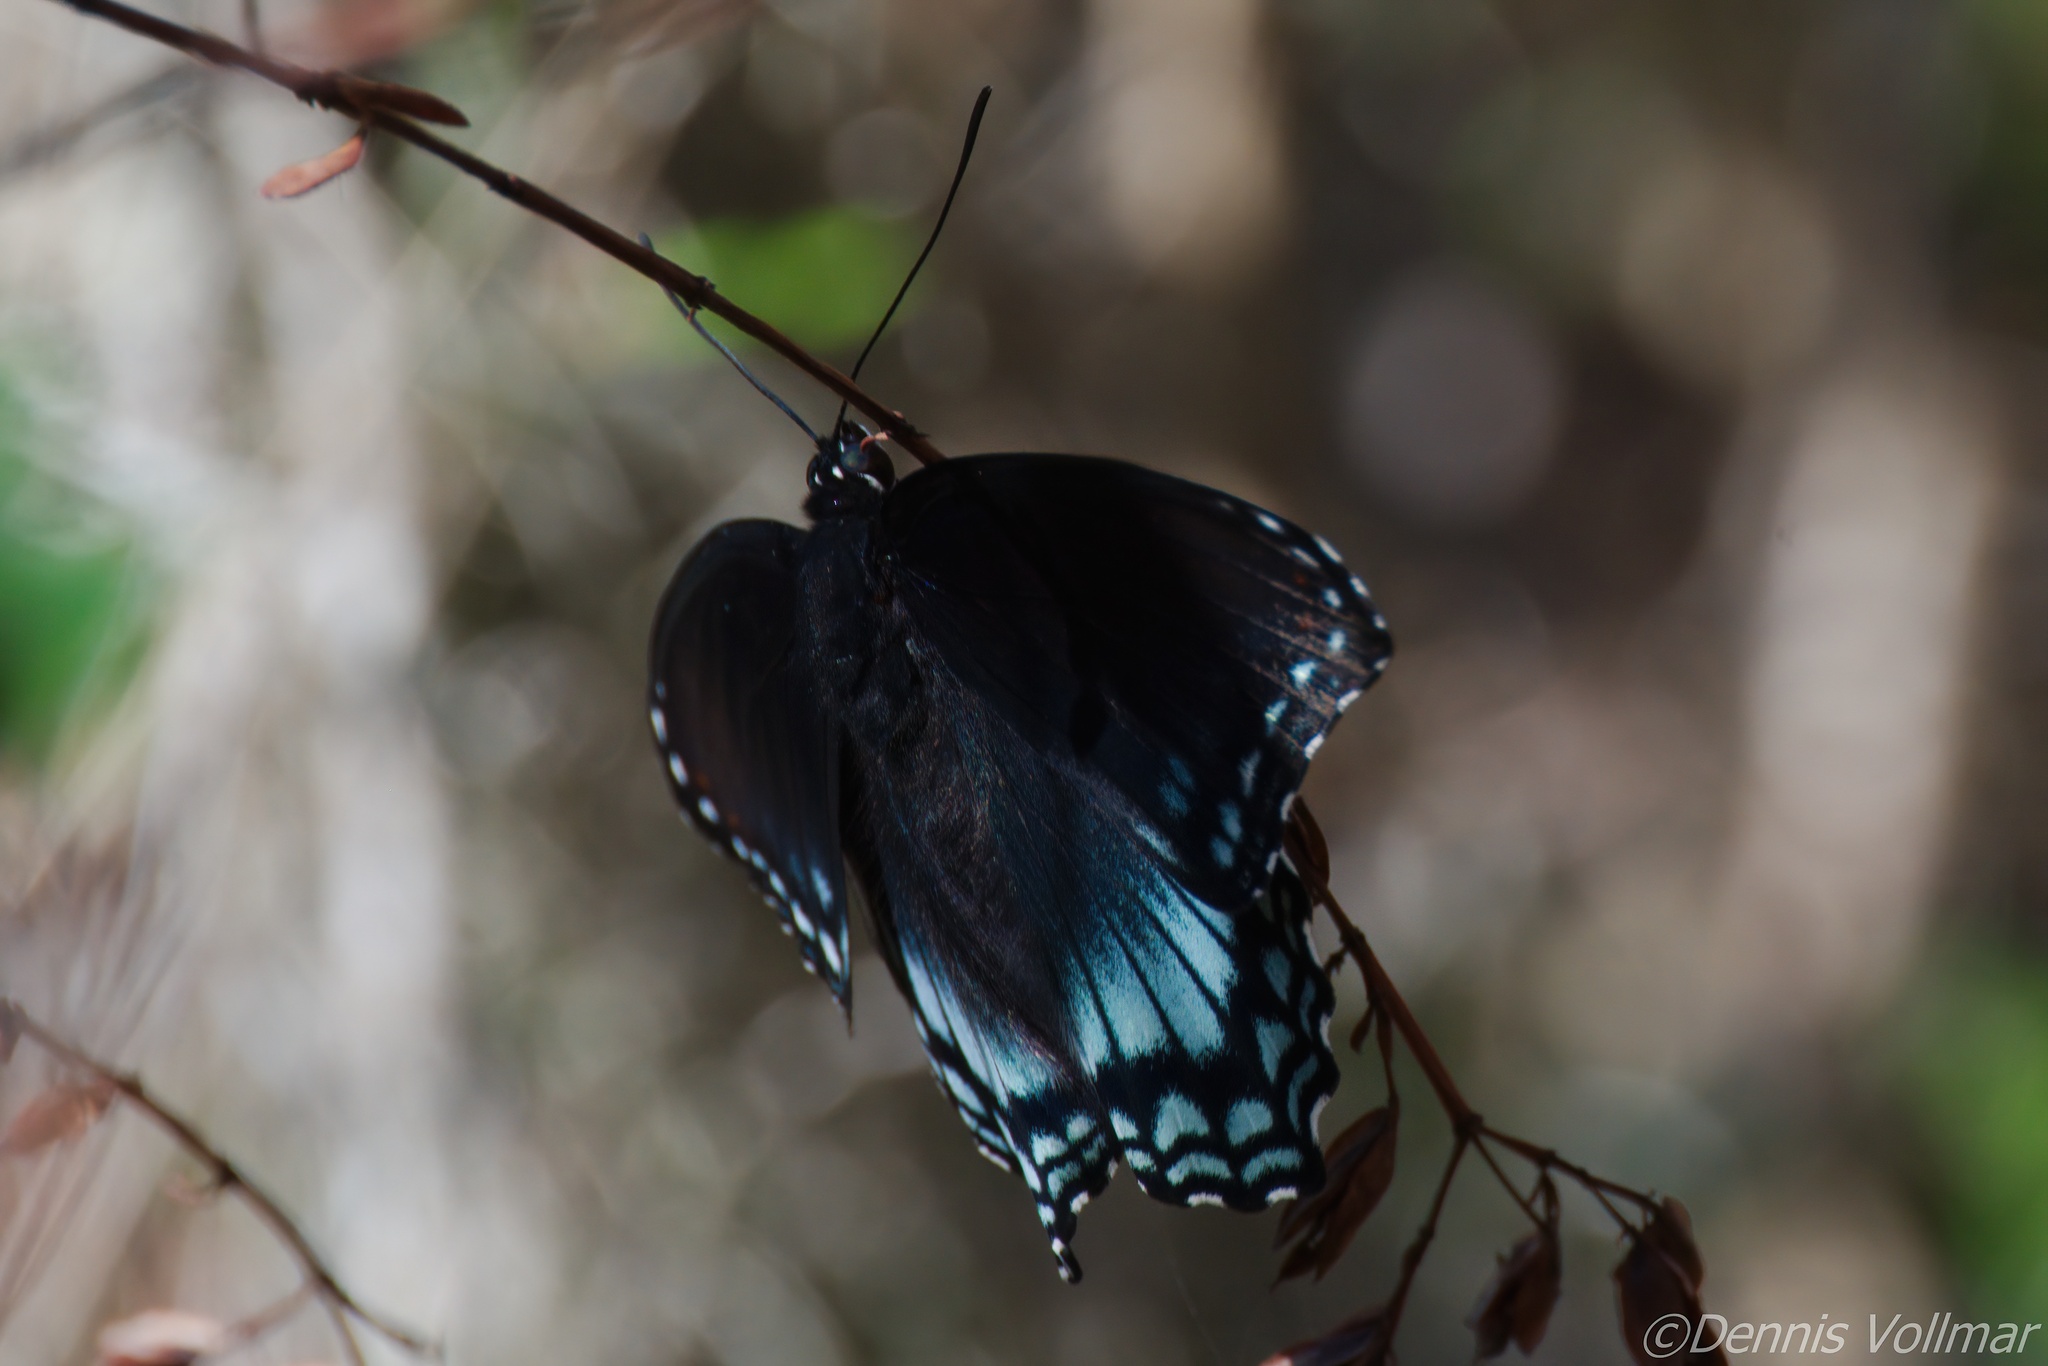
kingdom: Animalia
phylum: Arthropoda
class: Insecta
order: Lepidoptera
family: Nymphalidae
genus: Limenitis
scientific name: Limenitis astyanax
